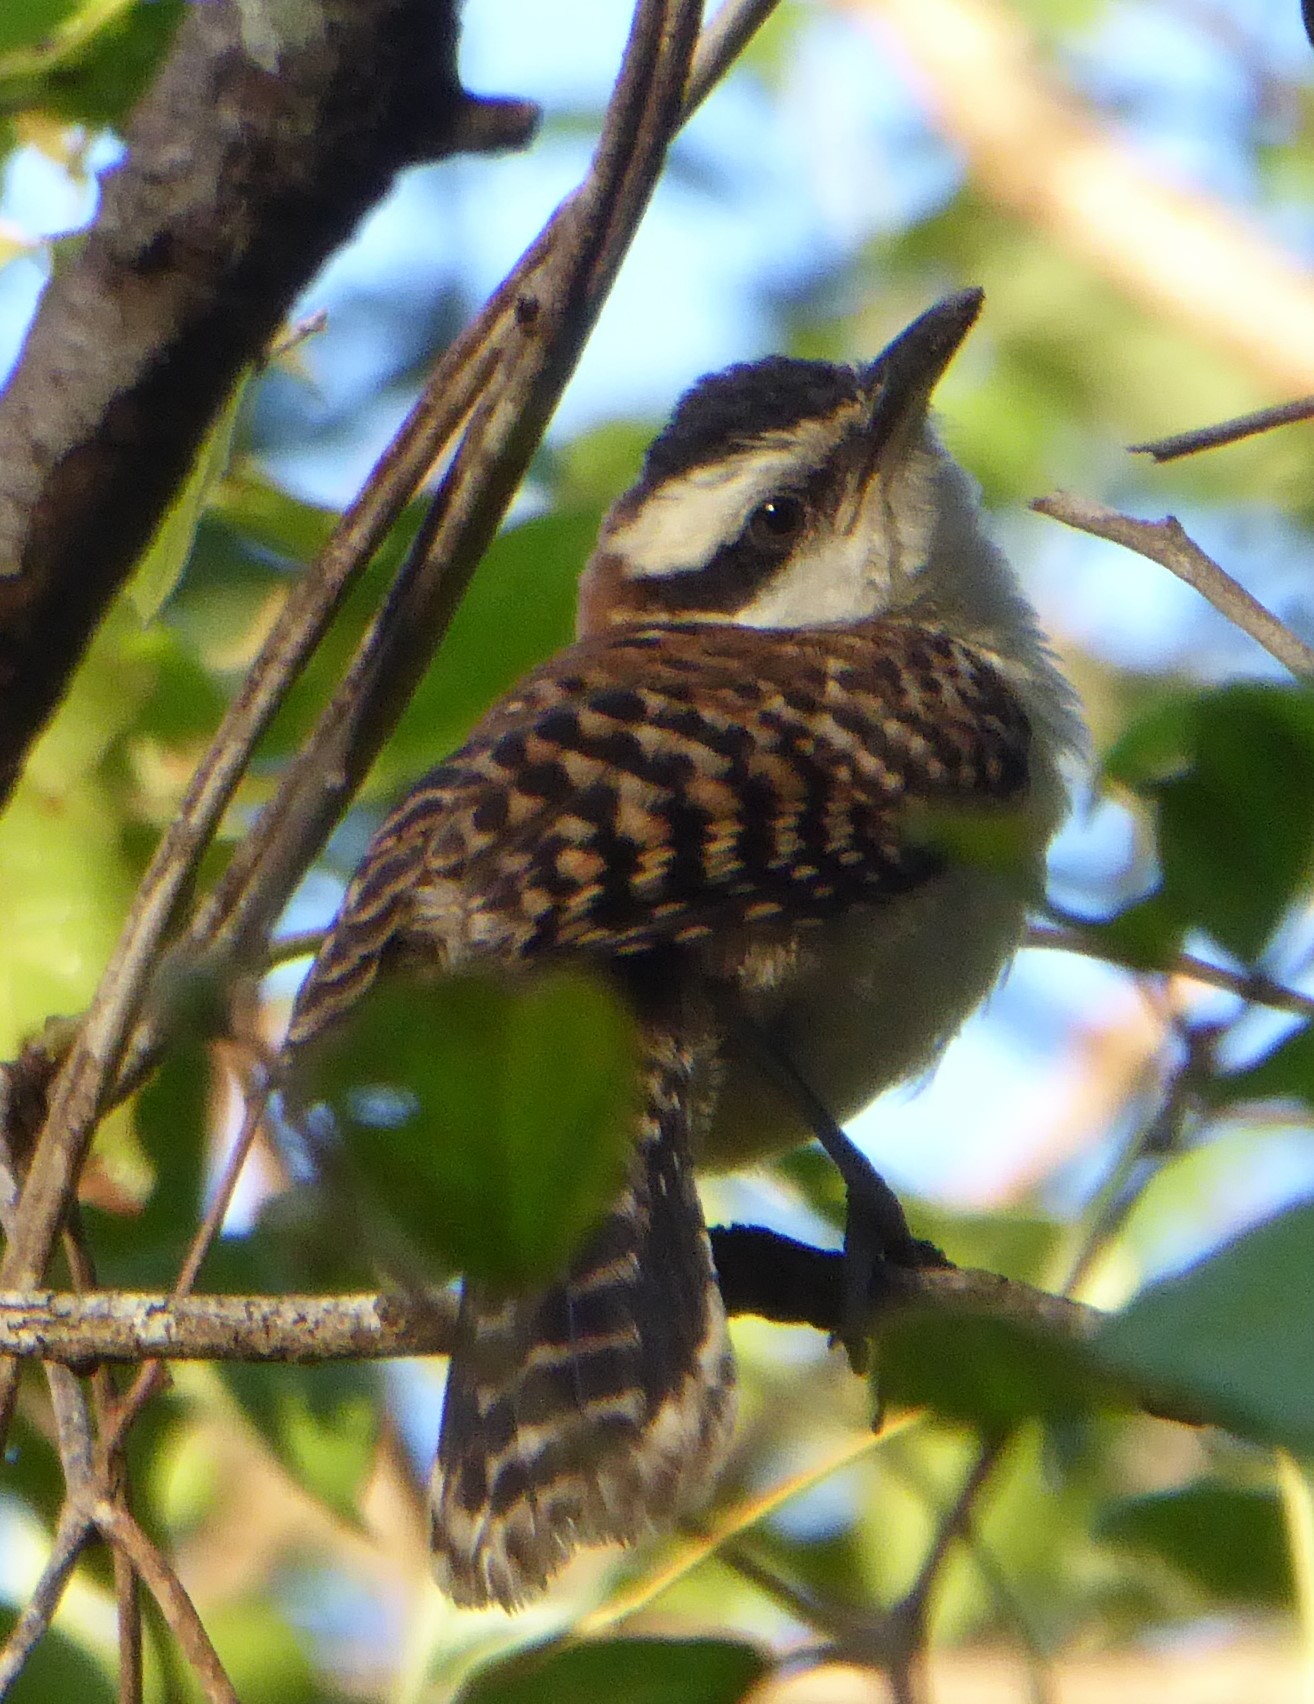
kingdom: Animalia
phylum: Chordata
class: Aves
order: Passeriformes
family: Troglodytidae
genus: Campylorhynchus
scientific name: Campylorhynchus rufinucha
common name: Rufous-naped wren
